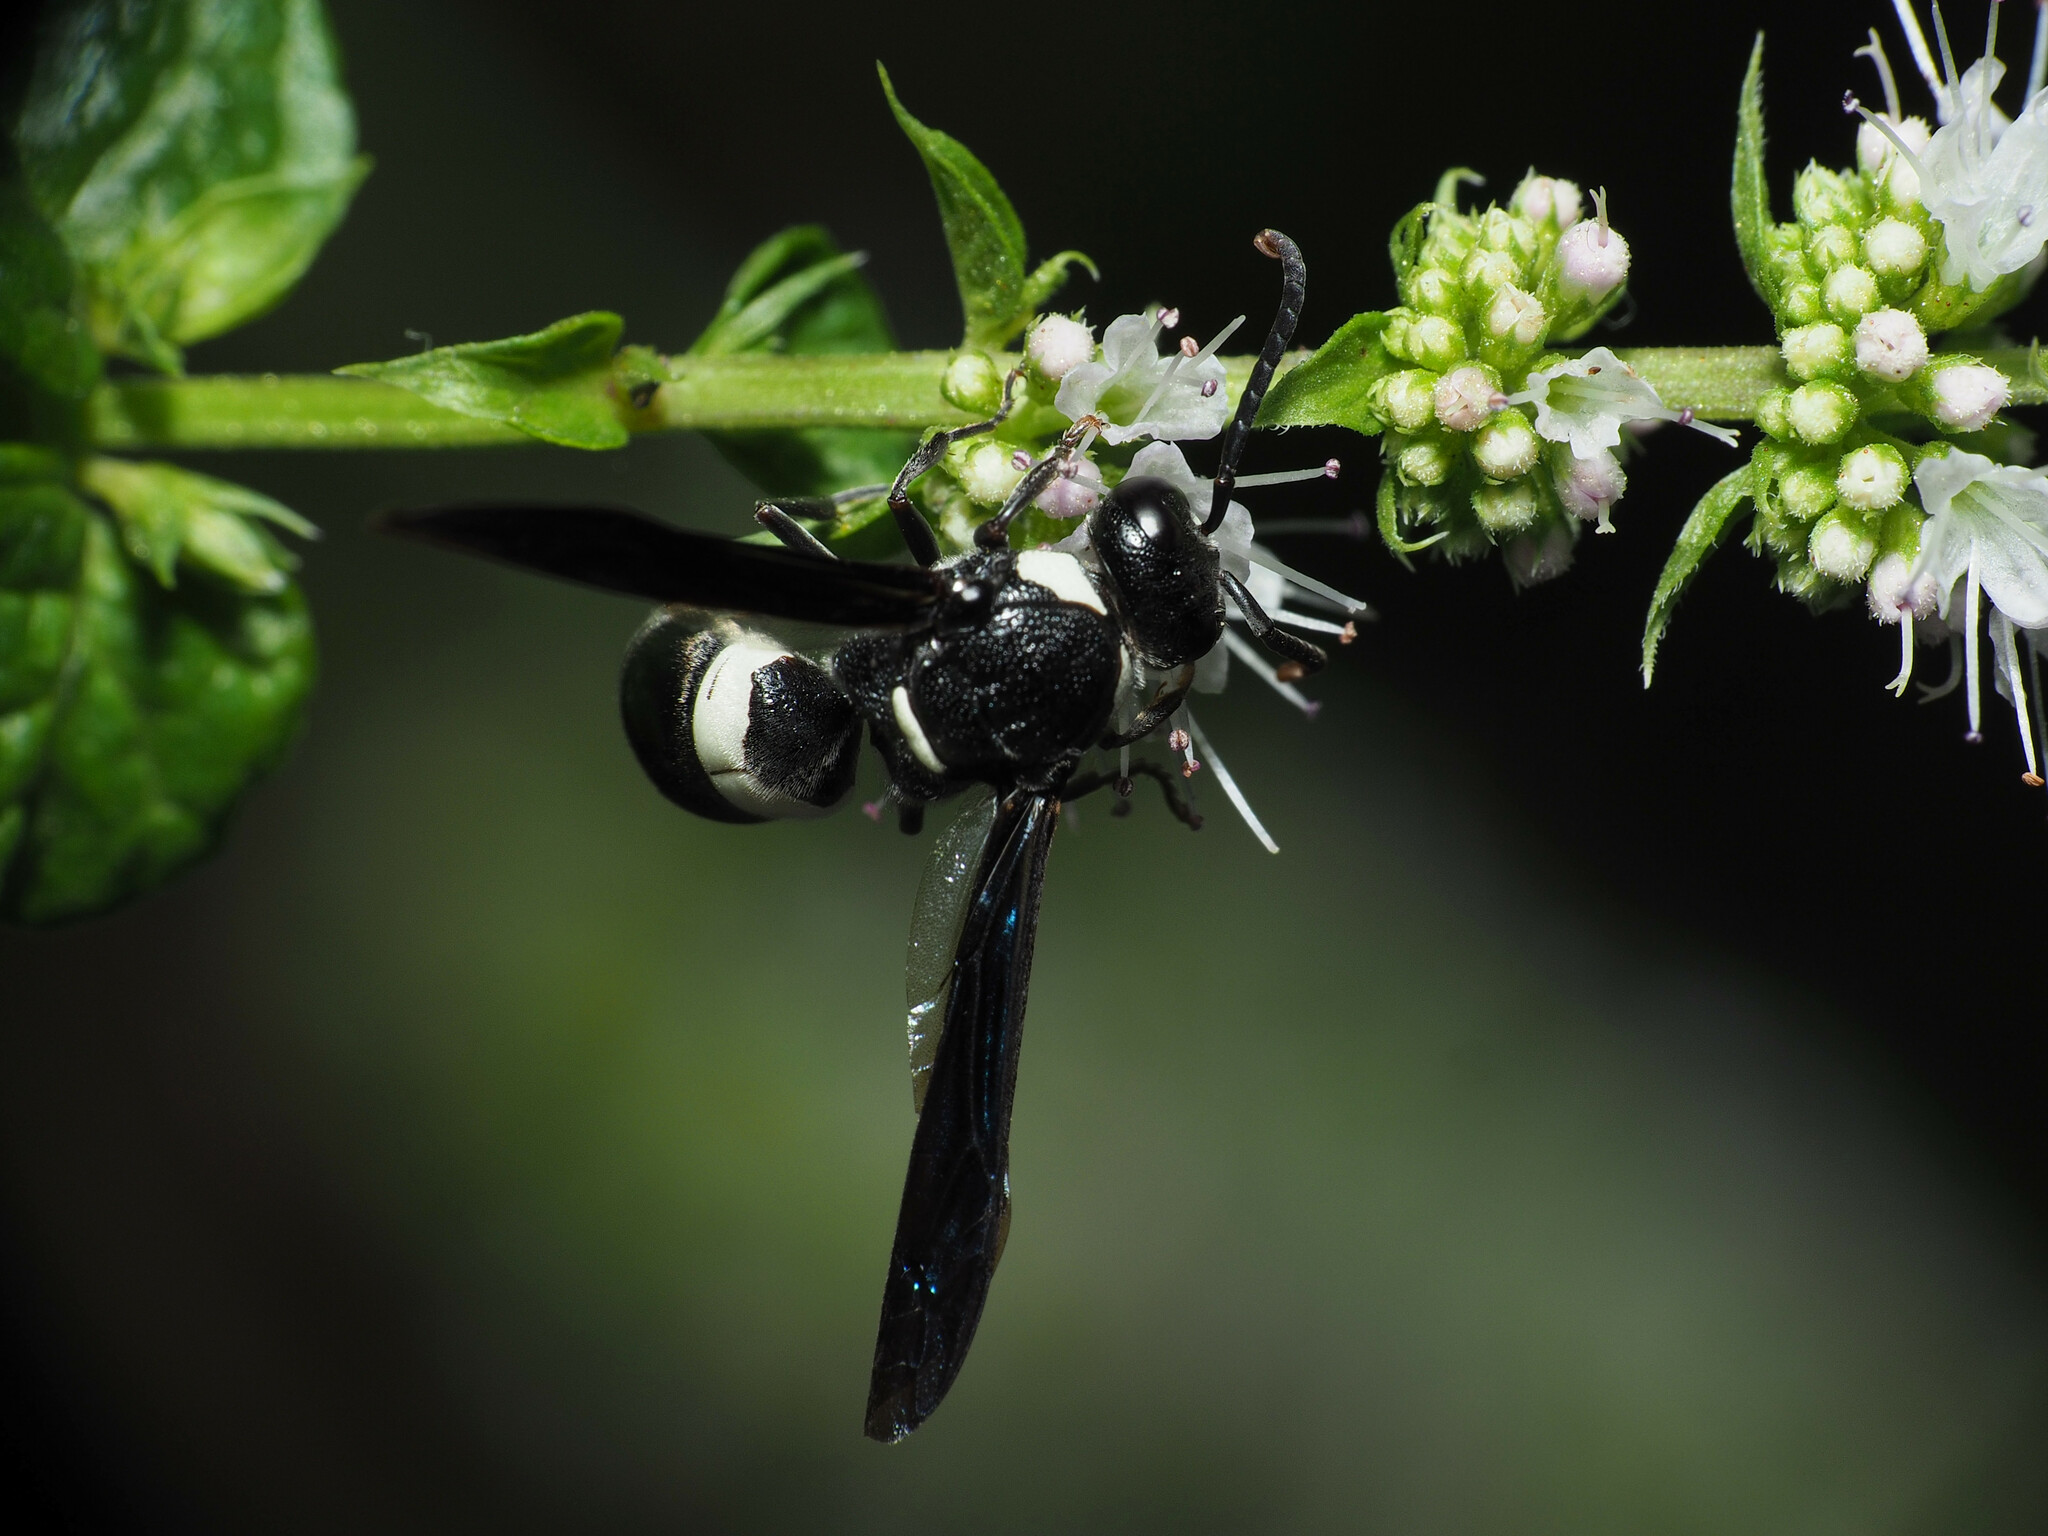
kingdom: Animalia
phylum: Arthropoda
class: Insecta
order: Hymenoptera
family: Eumenidae
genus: Monobia
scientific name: Monobia quadridens
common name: Four-toothed mason wasp
